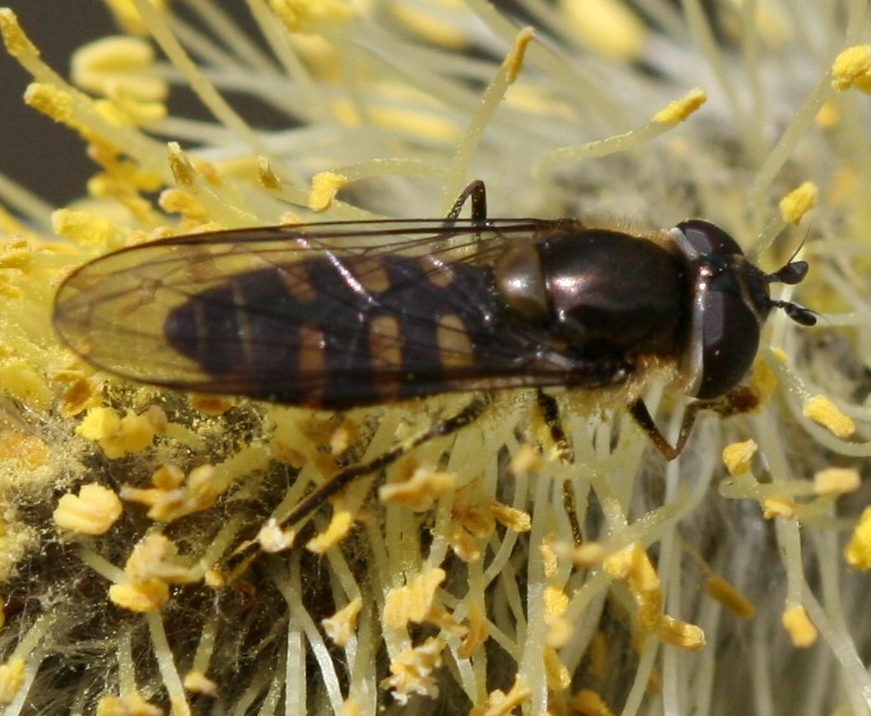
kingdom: Animalia
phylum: Arthropoda
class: Insecta
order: Diptera
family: Syrphidae
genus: Melangyna
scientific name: Melangyna lasiophthalma
